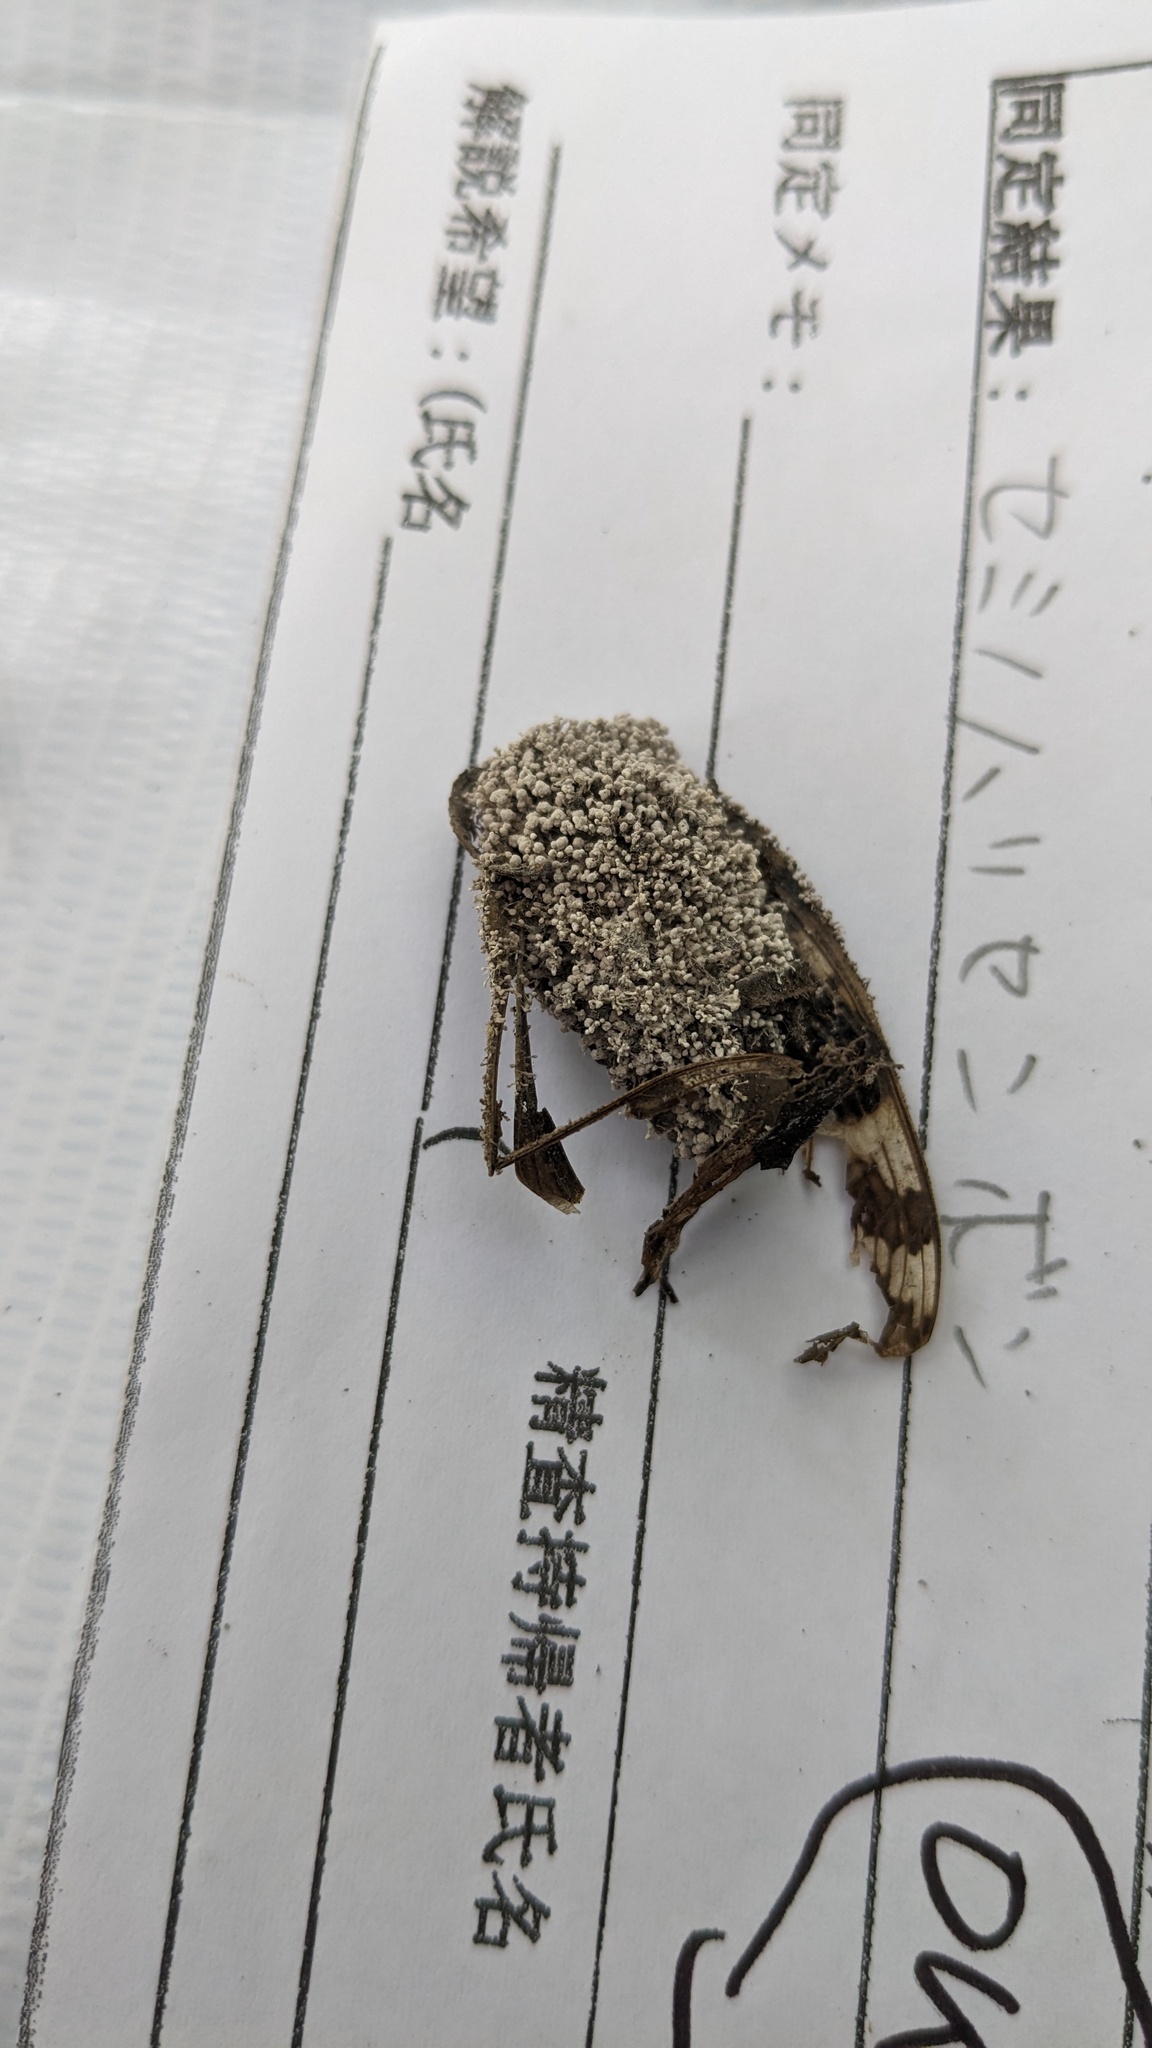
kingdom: Fungi
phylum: Ascomycota
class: Sordariomycetes
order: Hypocreales
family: Ophiocordycipitaceae
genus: Purpureocillium
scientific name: Purpureocillium takamizusanense
